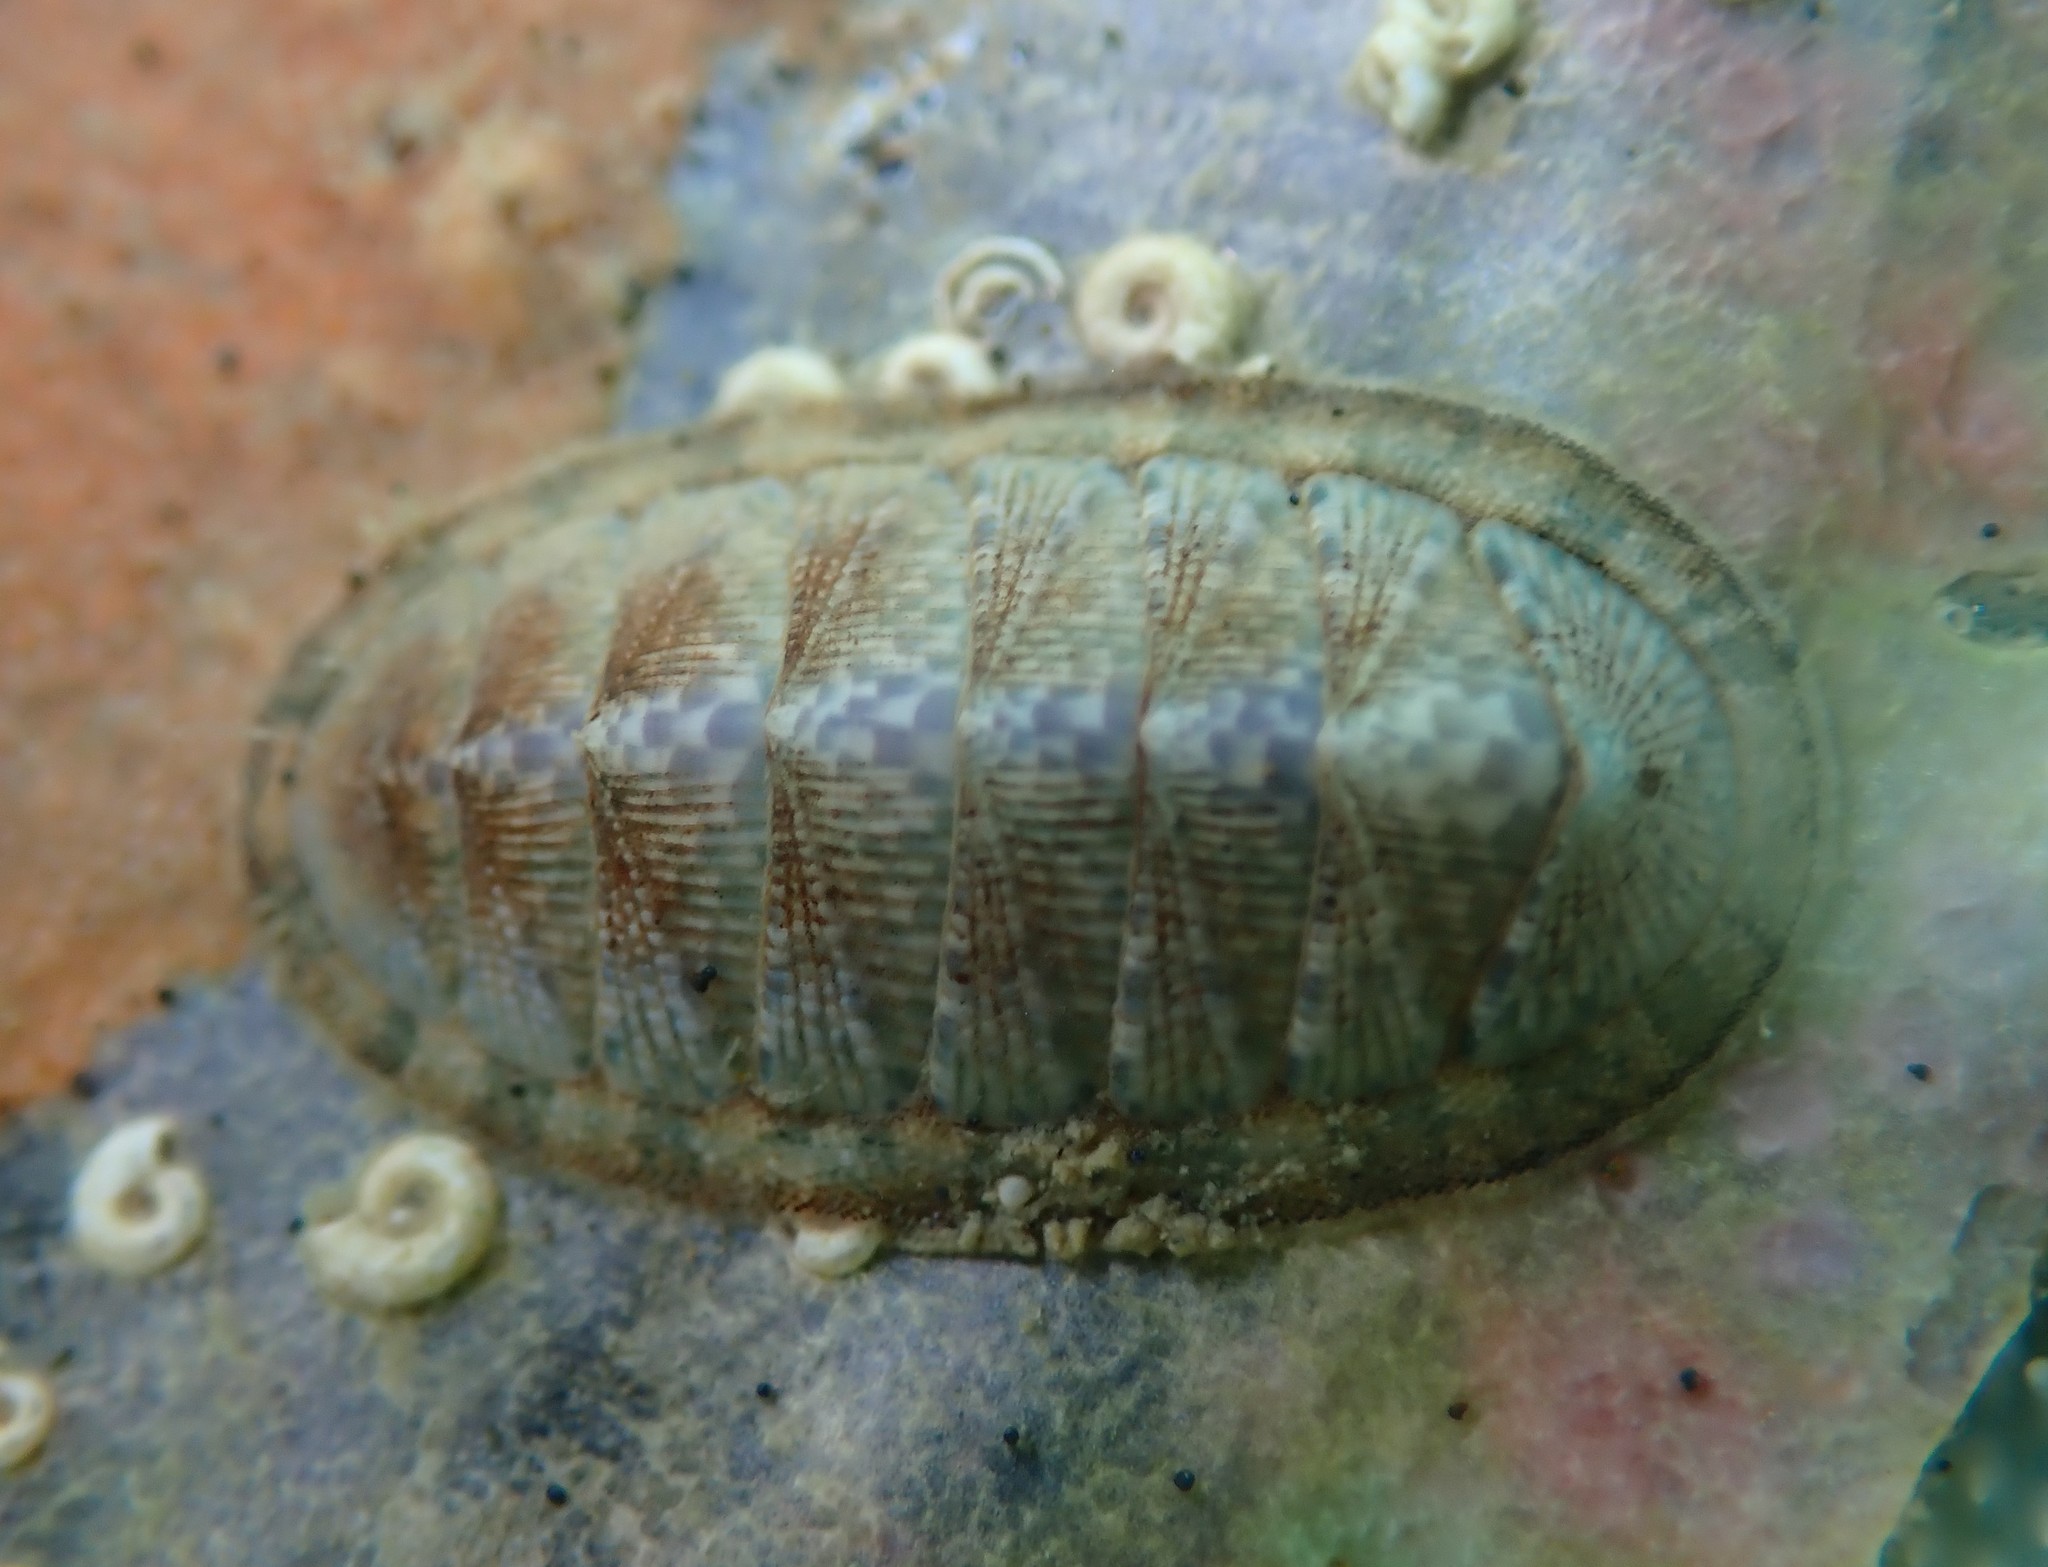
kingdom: Animalia
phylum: Mollusca
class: Polyplacophora
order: Chitonida
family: Chitonidae
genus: Rhyssoplax
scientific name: Rhyssoplax stangeri
